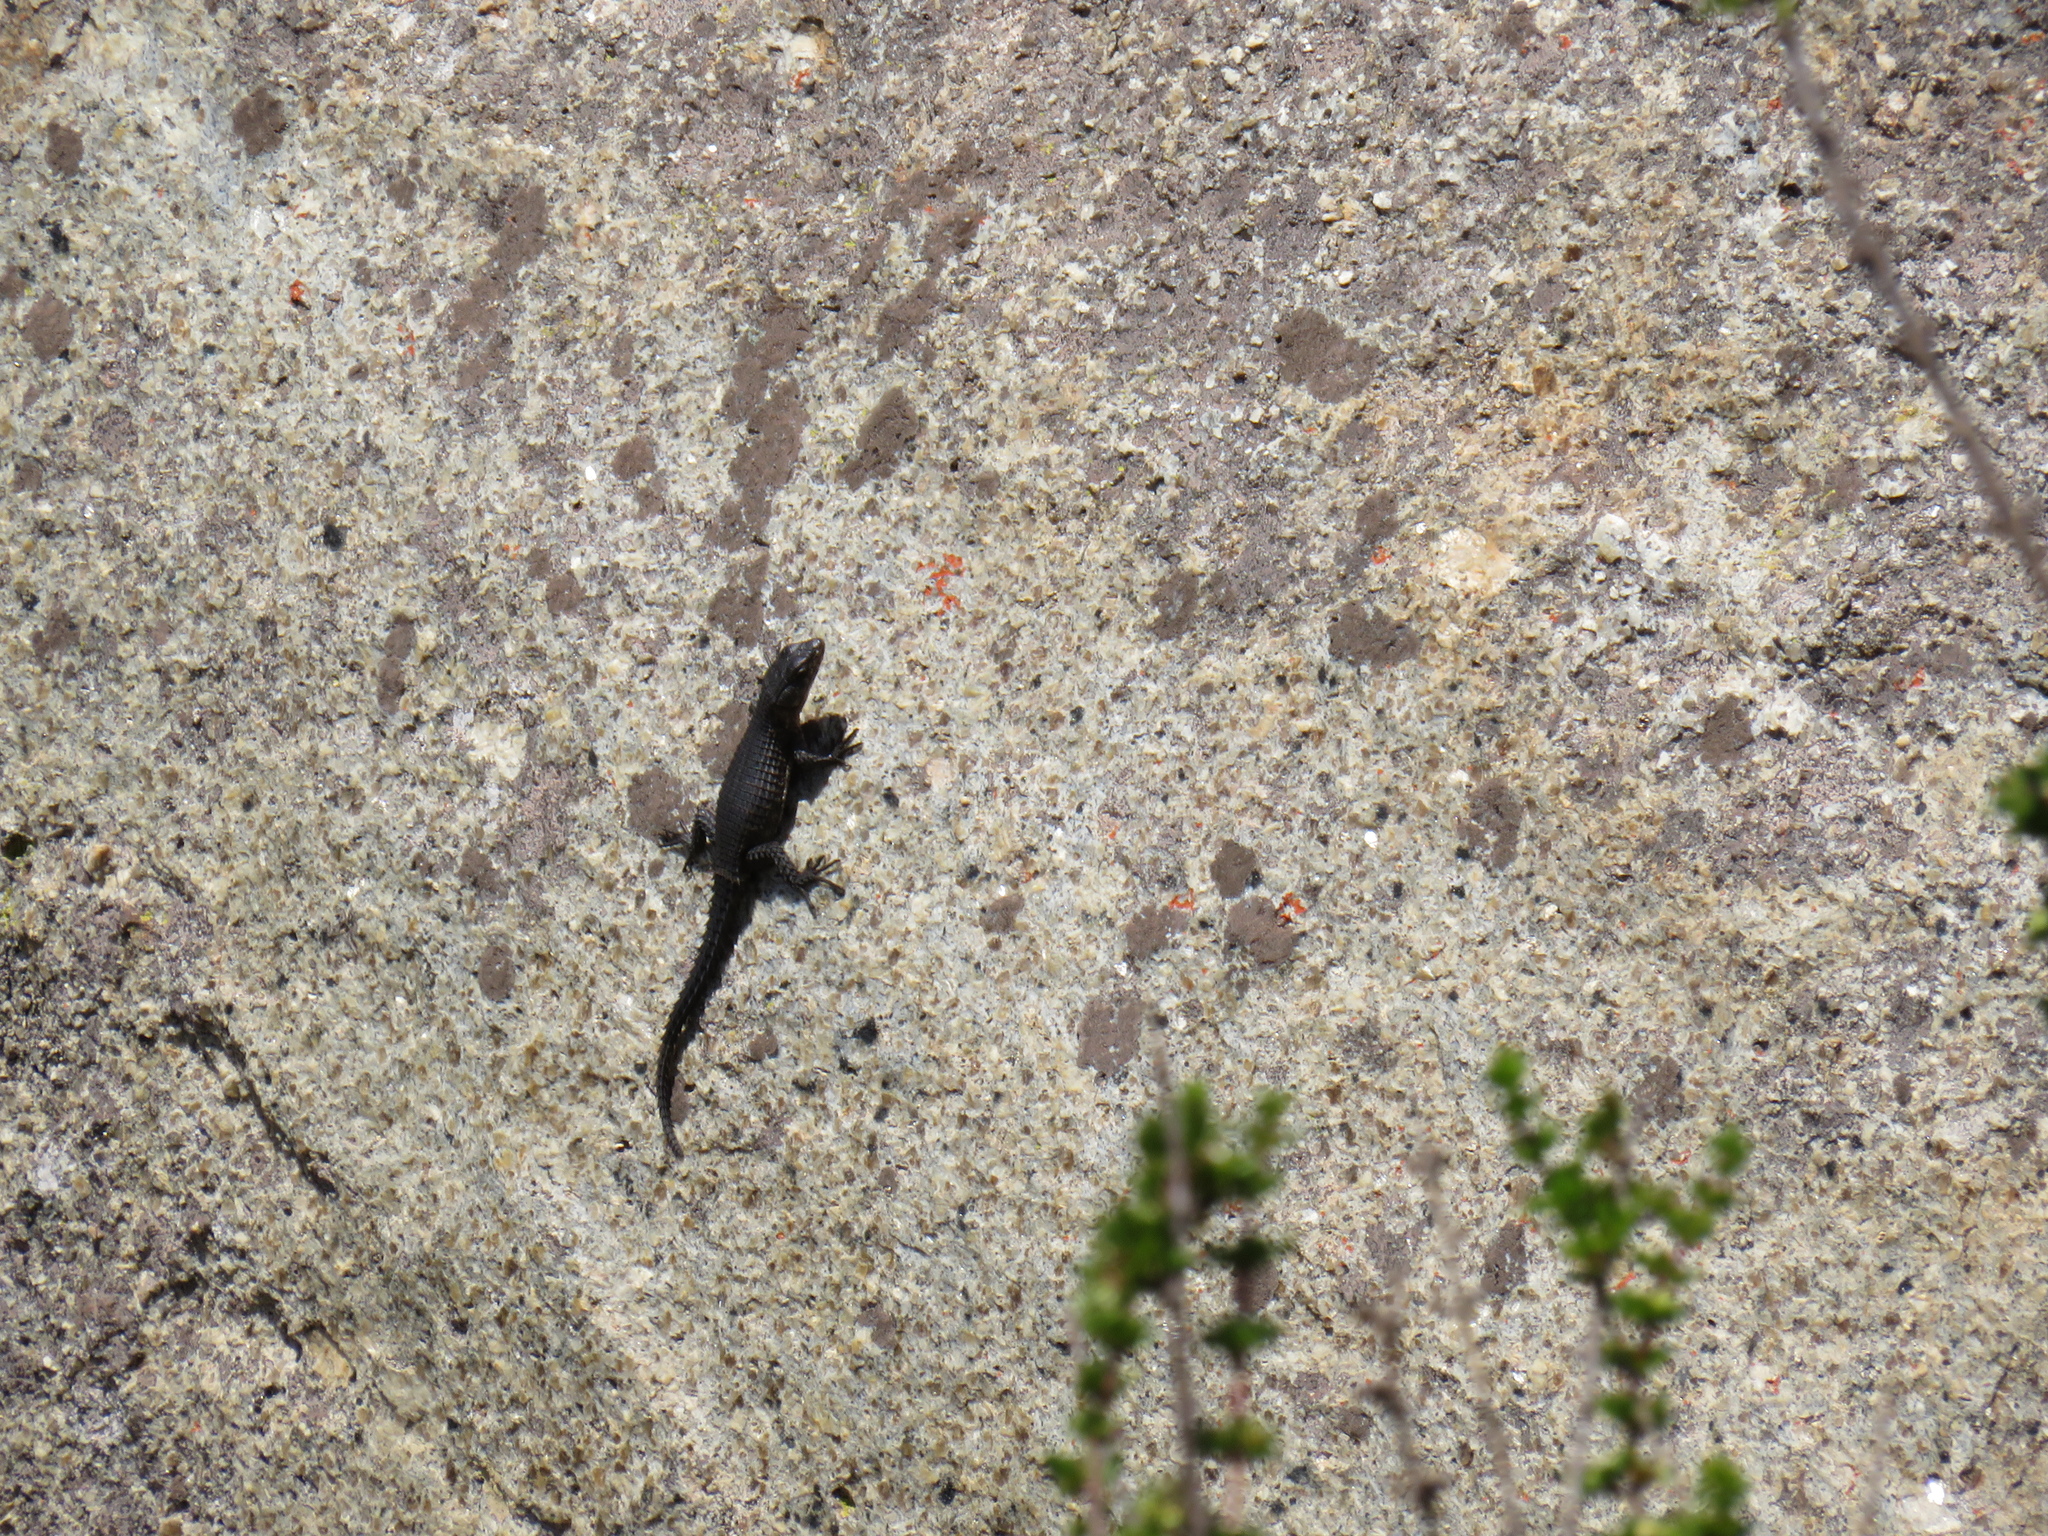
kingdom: Animalia
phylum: Chordata
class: Squamata
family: Cordylidae
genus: Cordylus
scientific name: Cordylus niger
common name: Black girdled lizard
